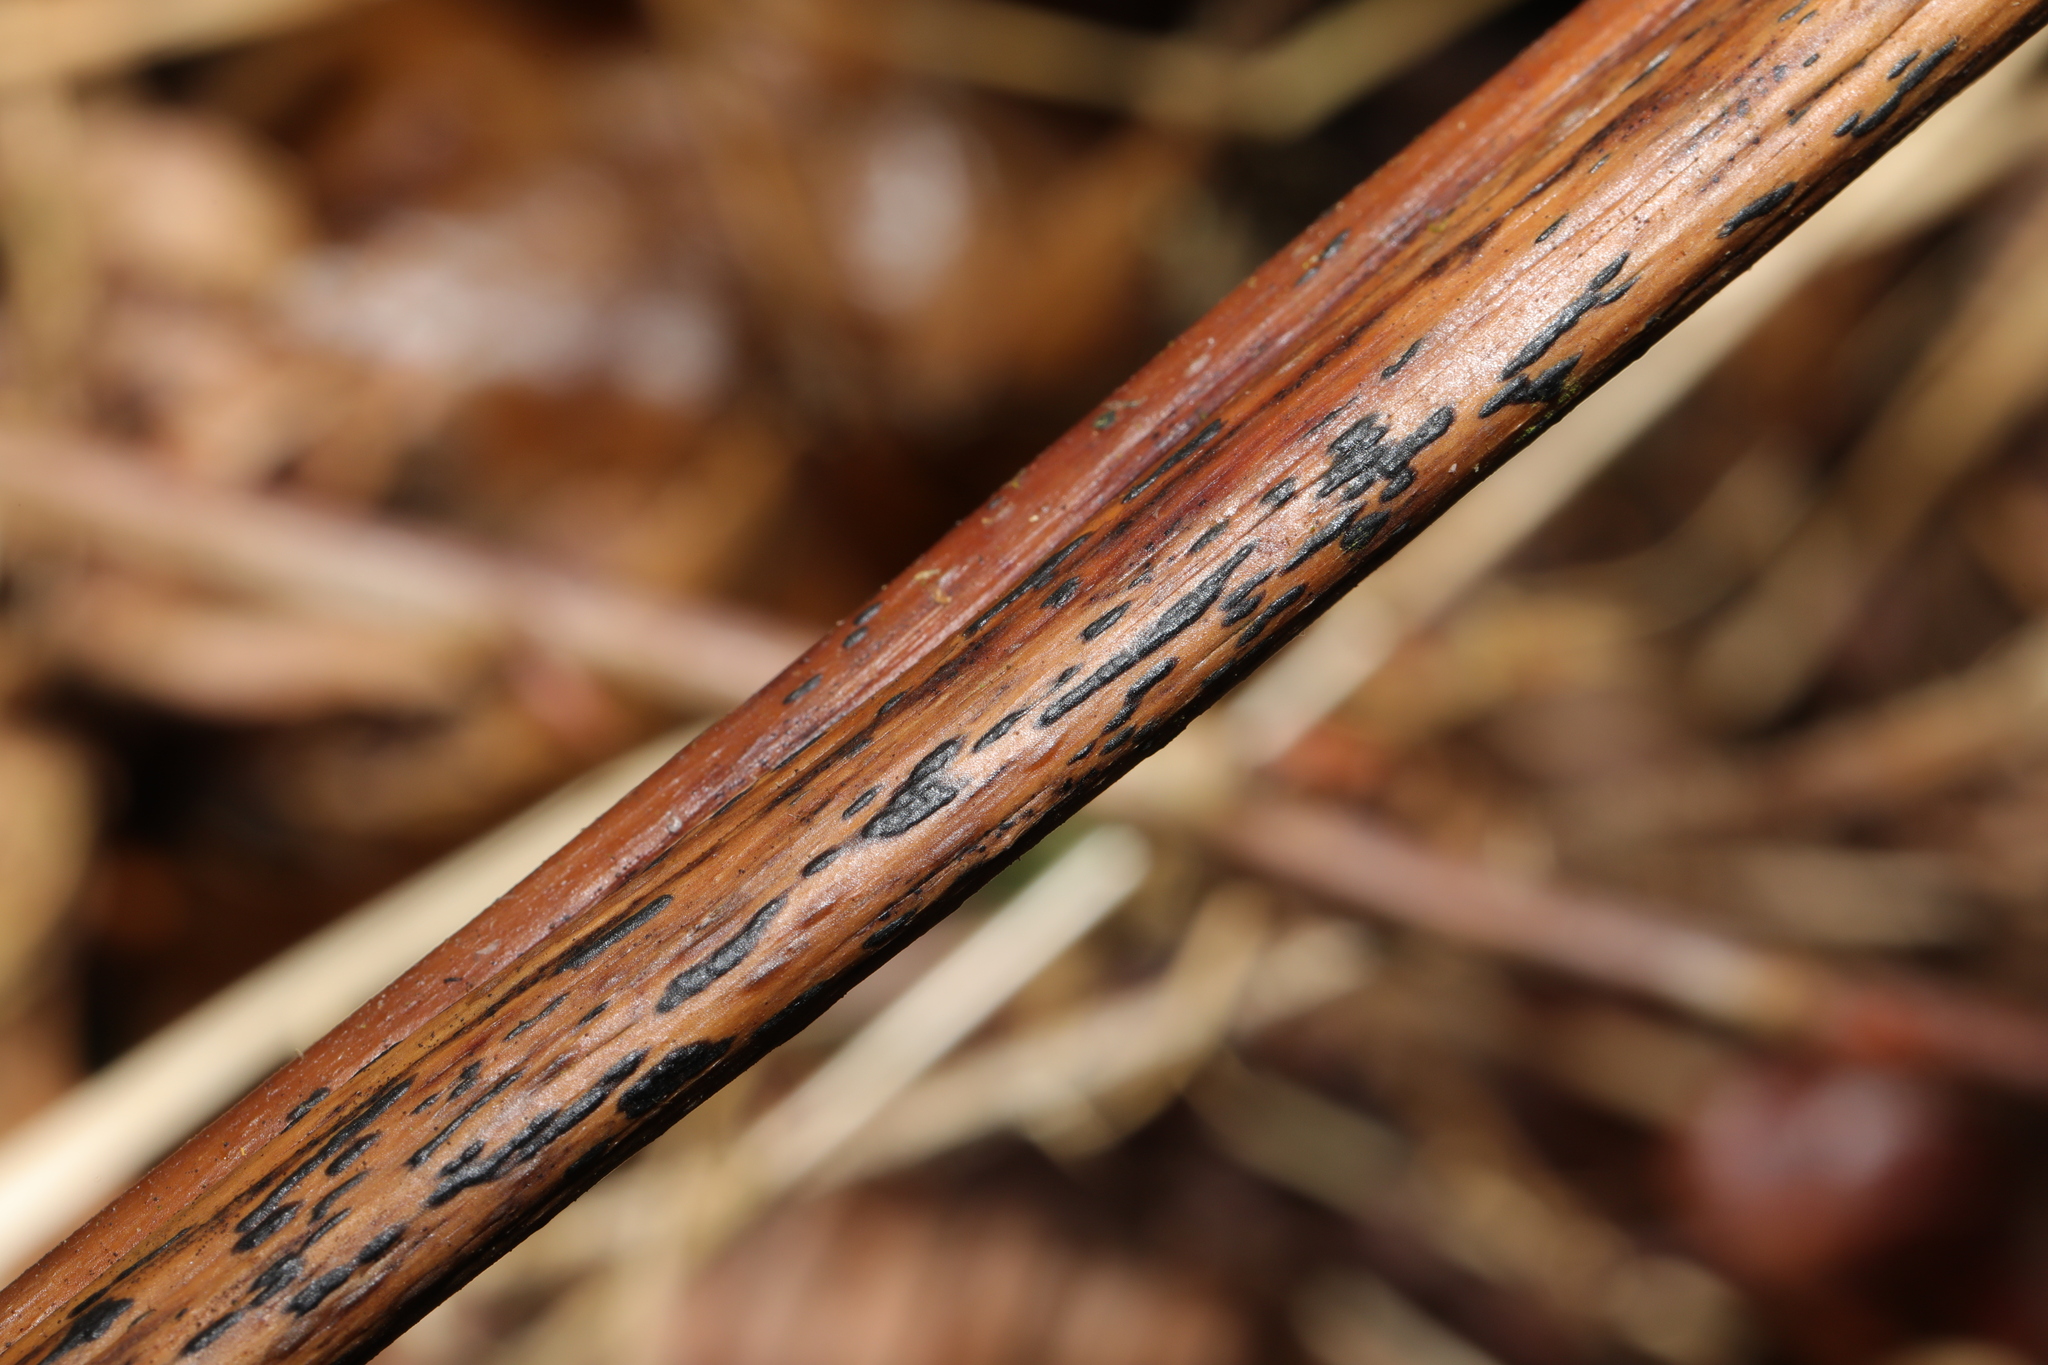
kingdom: Fungi
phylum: Ascomycota
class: Dothideomycetes
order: Pleosporales
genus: Rhopographus
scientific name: Rhopographus filicinus
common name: Bracken map
